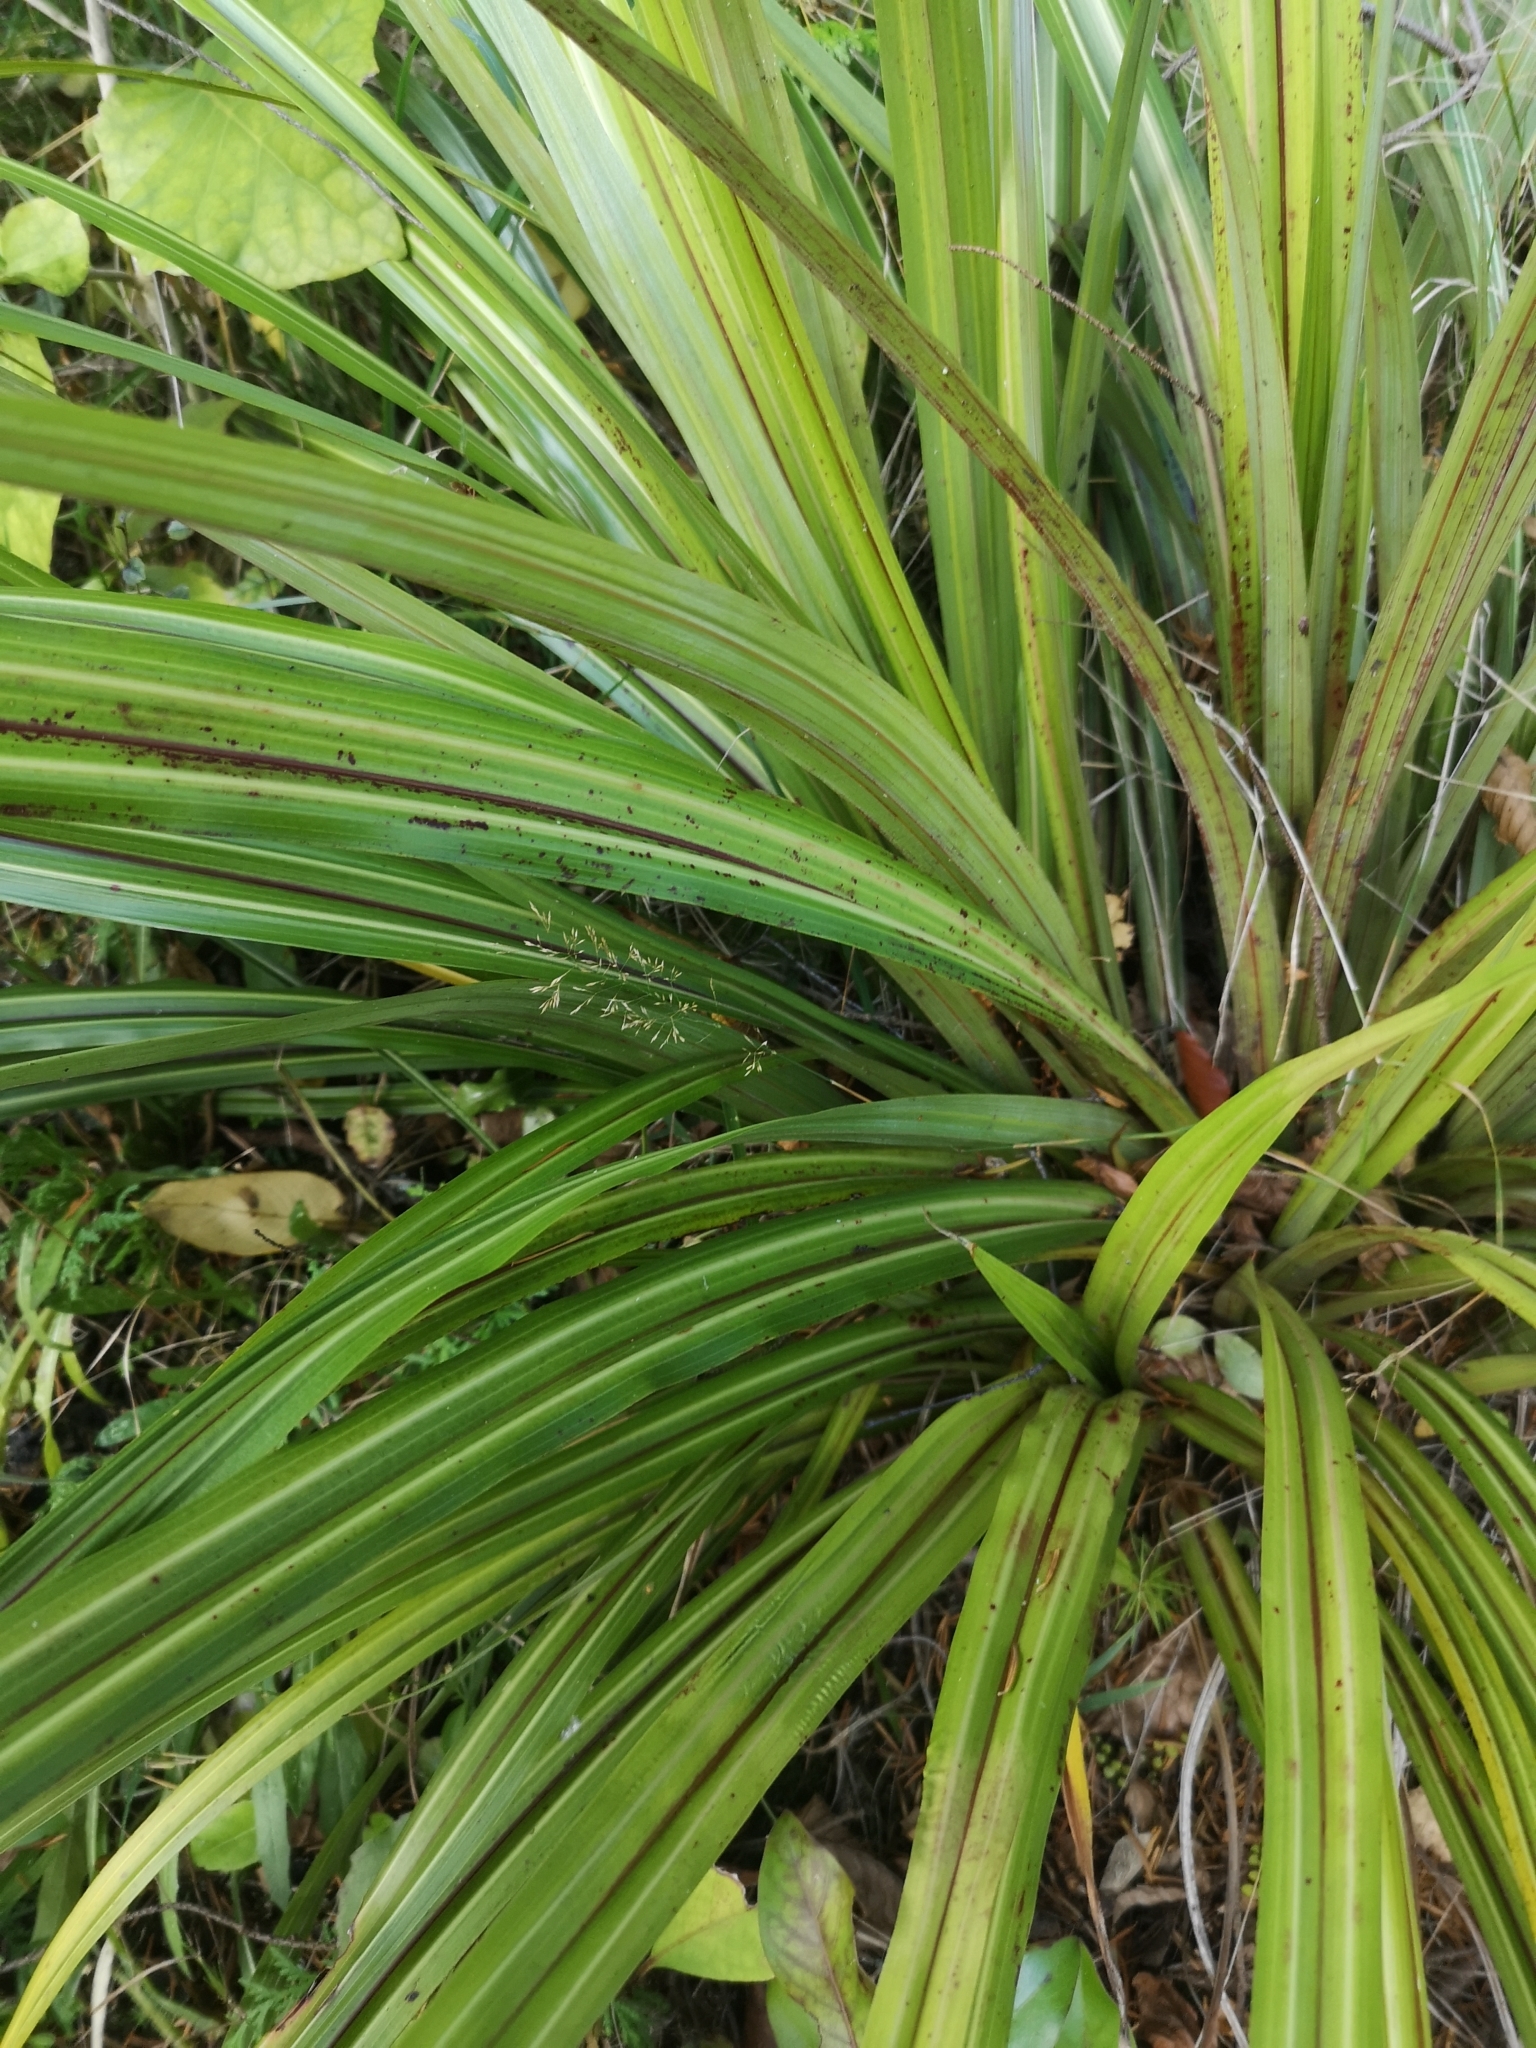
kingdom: Plantae
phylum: Tracheophyta
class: Liliopsida
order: Asparagales
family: Asteliaceae
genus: Astelia
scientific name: Astelia fragrans
